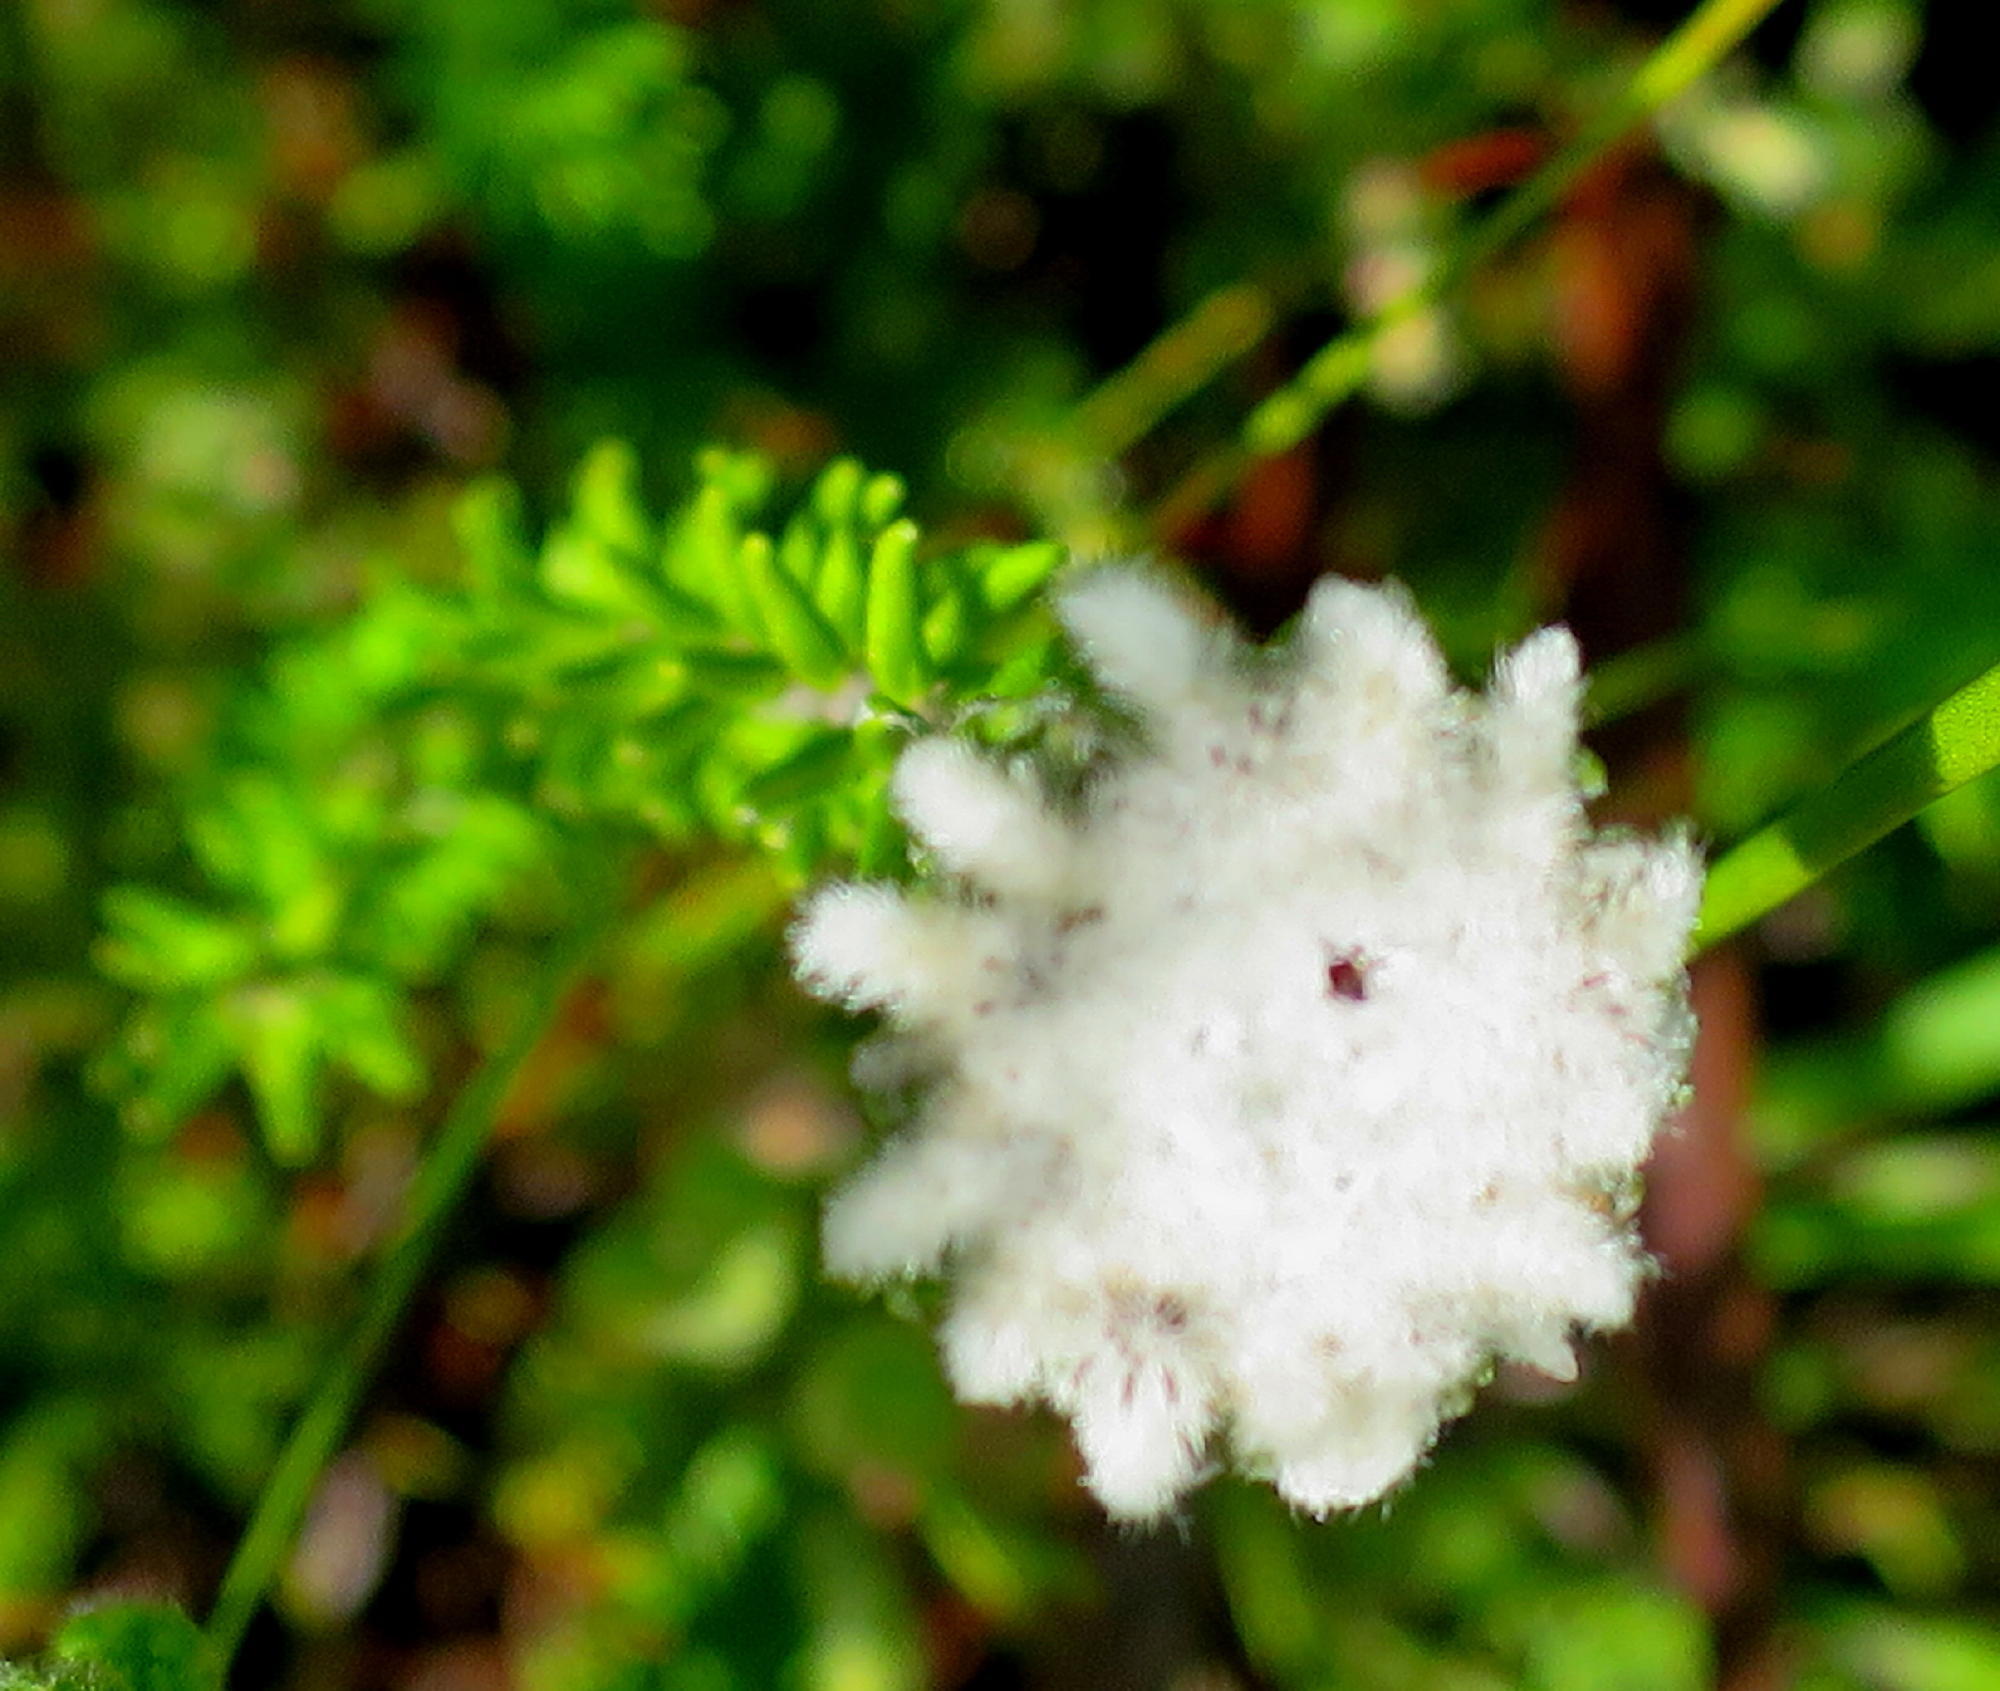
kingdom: Plantae
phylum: Tracheophyta
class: Magnoliopsida
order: Rosales
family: Rhamnaceae
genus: Phylica
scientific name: Phylica curvifolia
